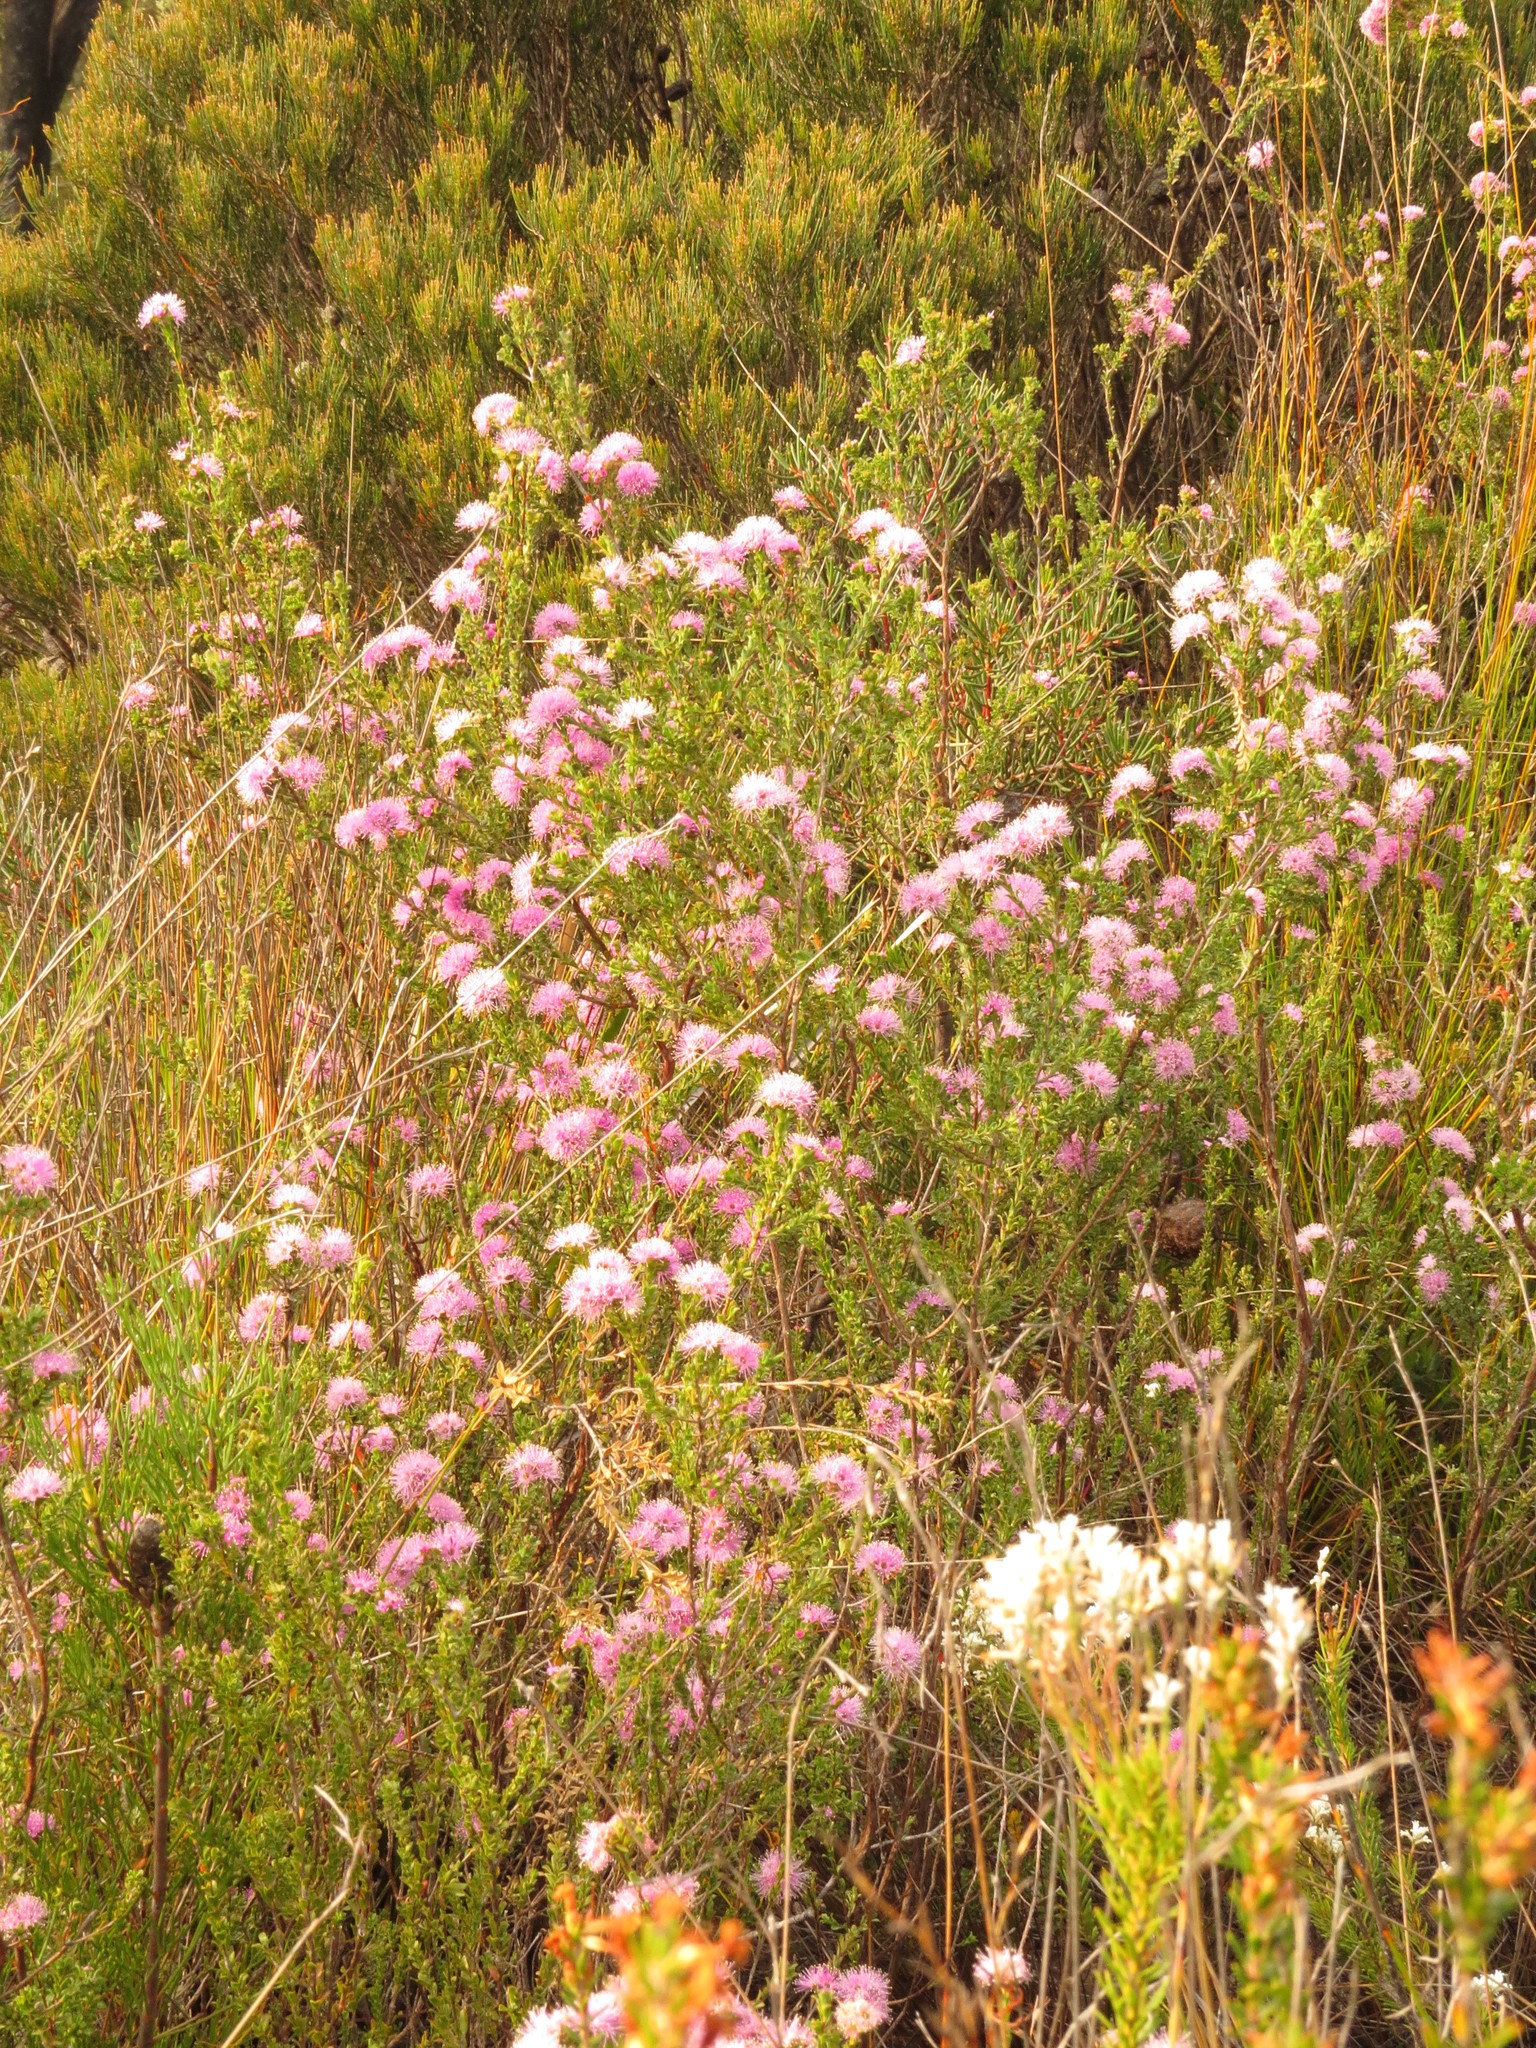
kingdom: Plantae
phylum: Tracheophyta
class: Magnoliopsida
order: Myrtales
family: Myrtaceae
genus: Kunzea
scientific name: Kunzea capitata
